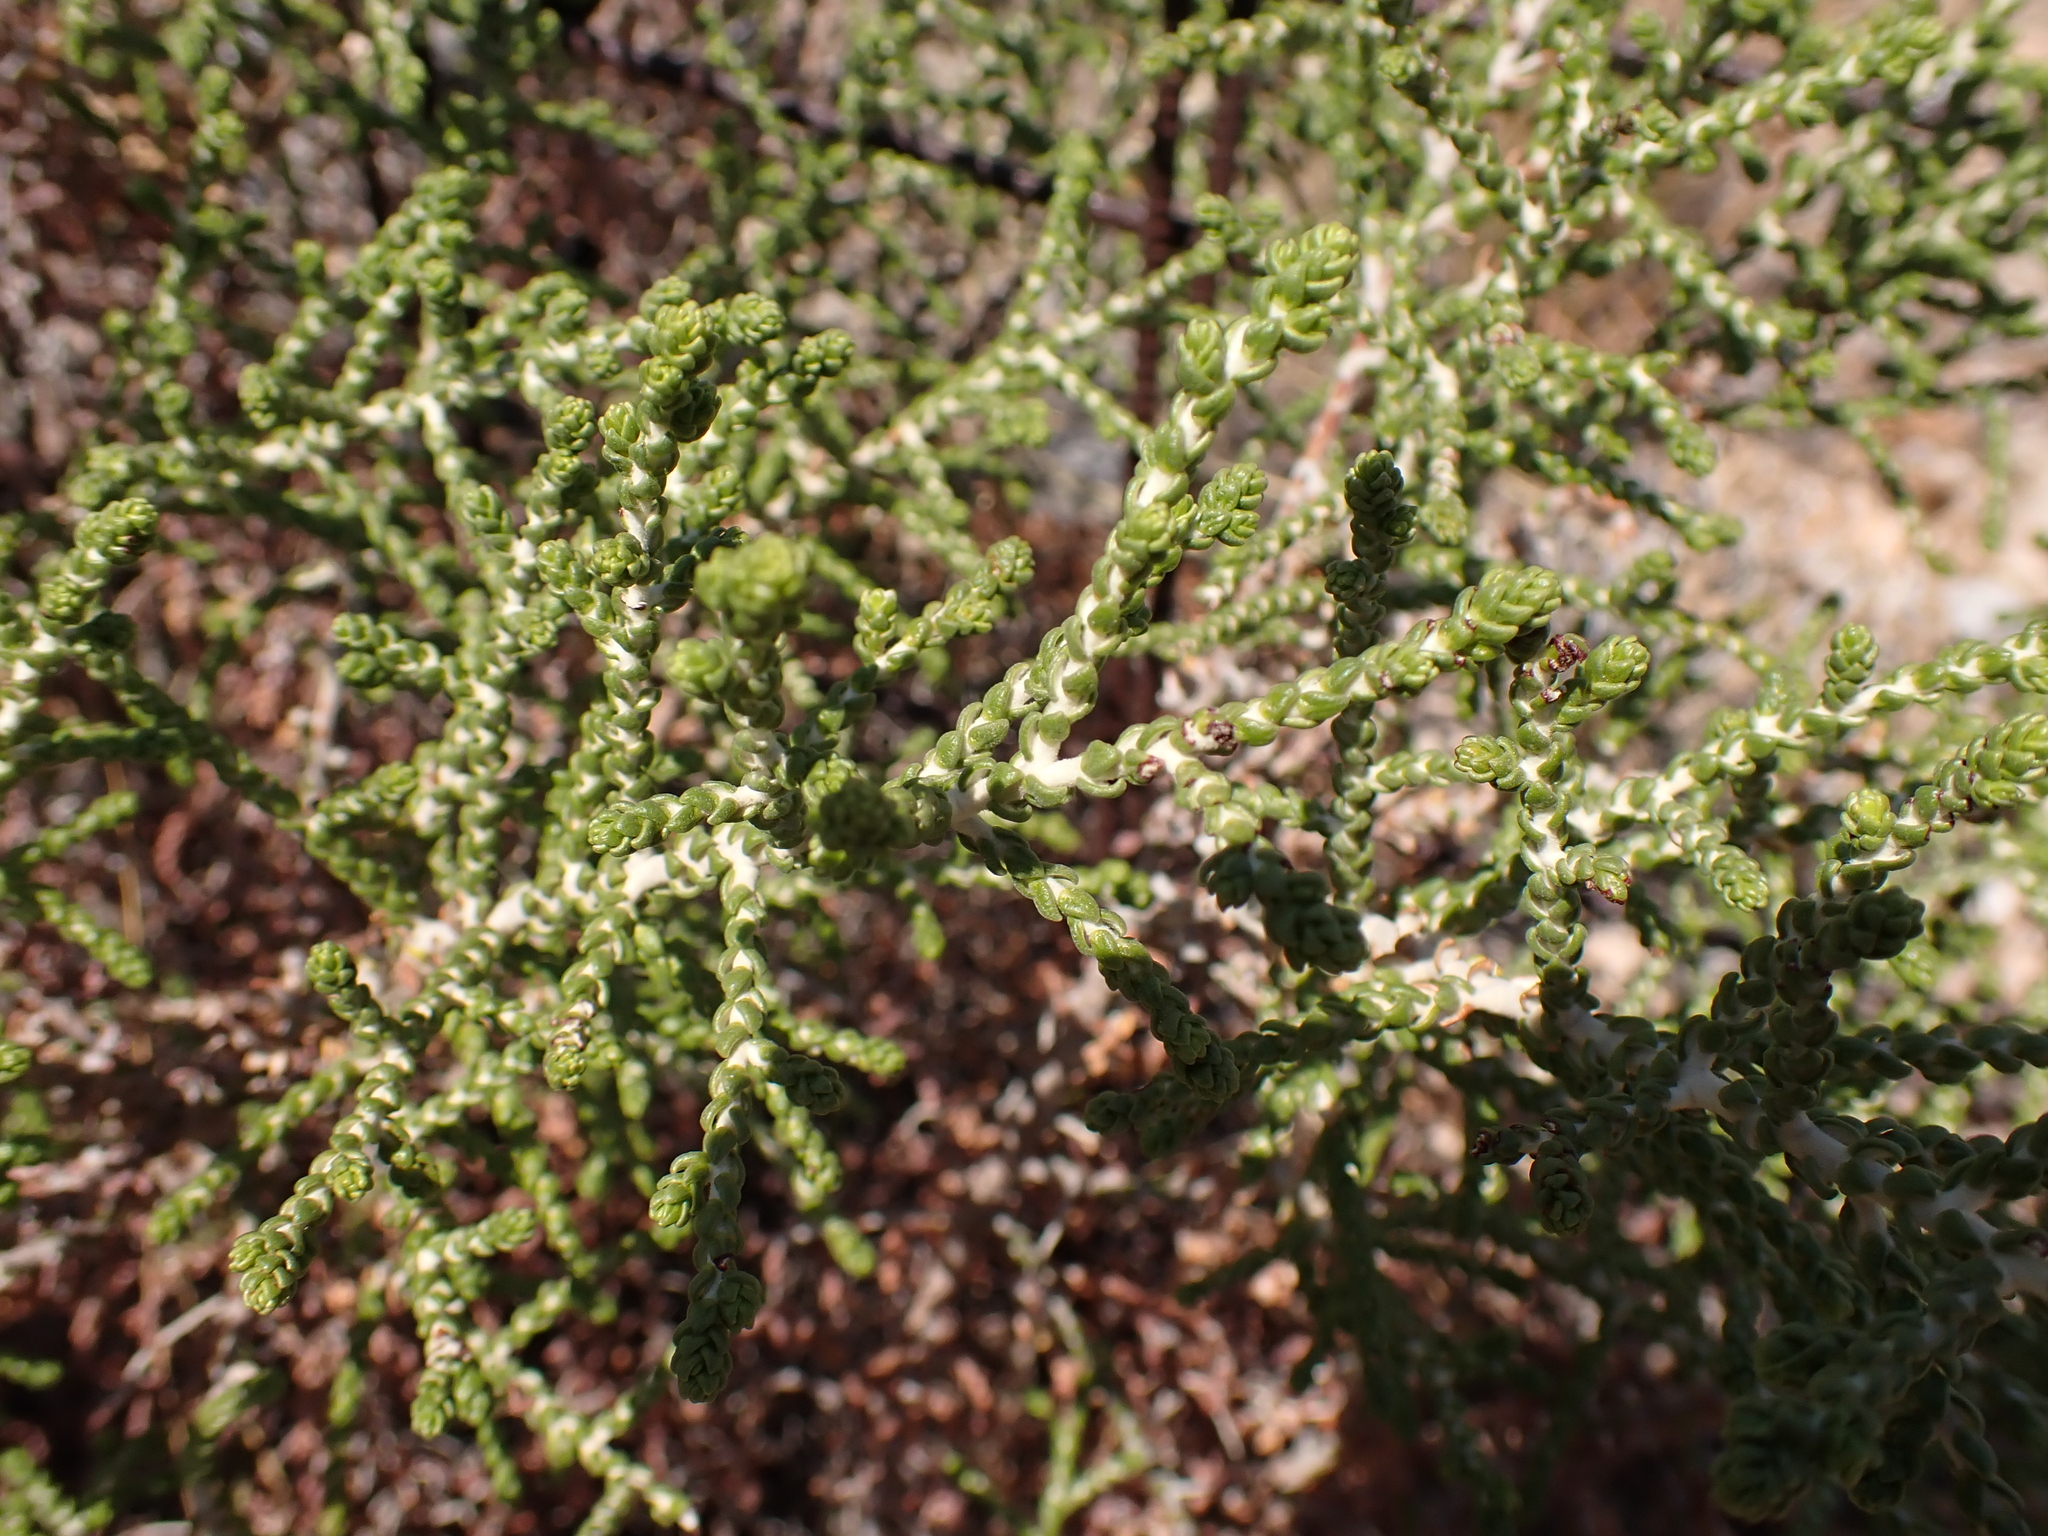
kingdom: Plantae
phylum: Tracheophyta
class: Magnoliopsida
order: Malvales
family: Thymelaeaceae
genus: Thymelaea
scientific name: Thymelaea hirsuta
